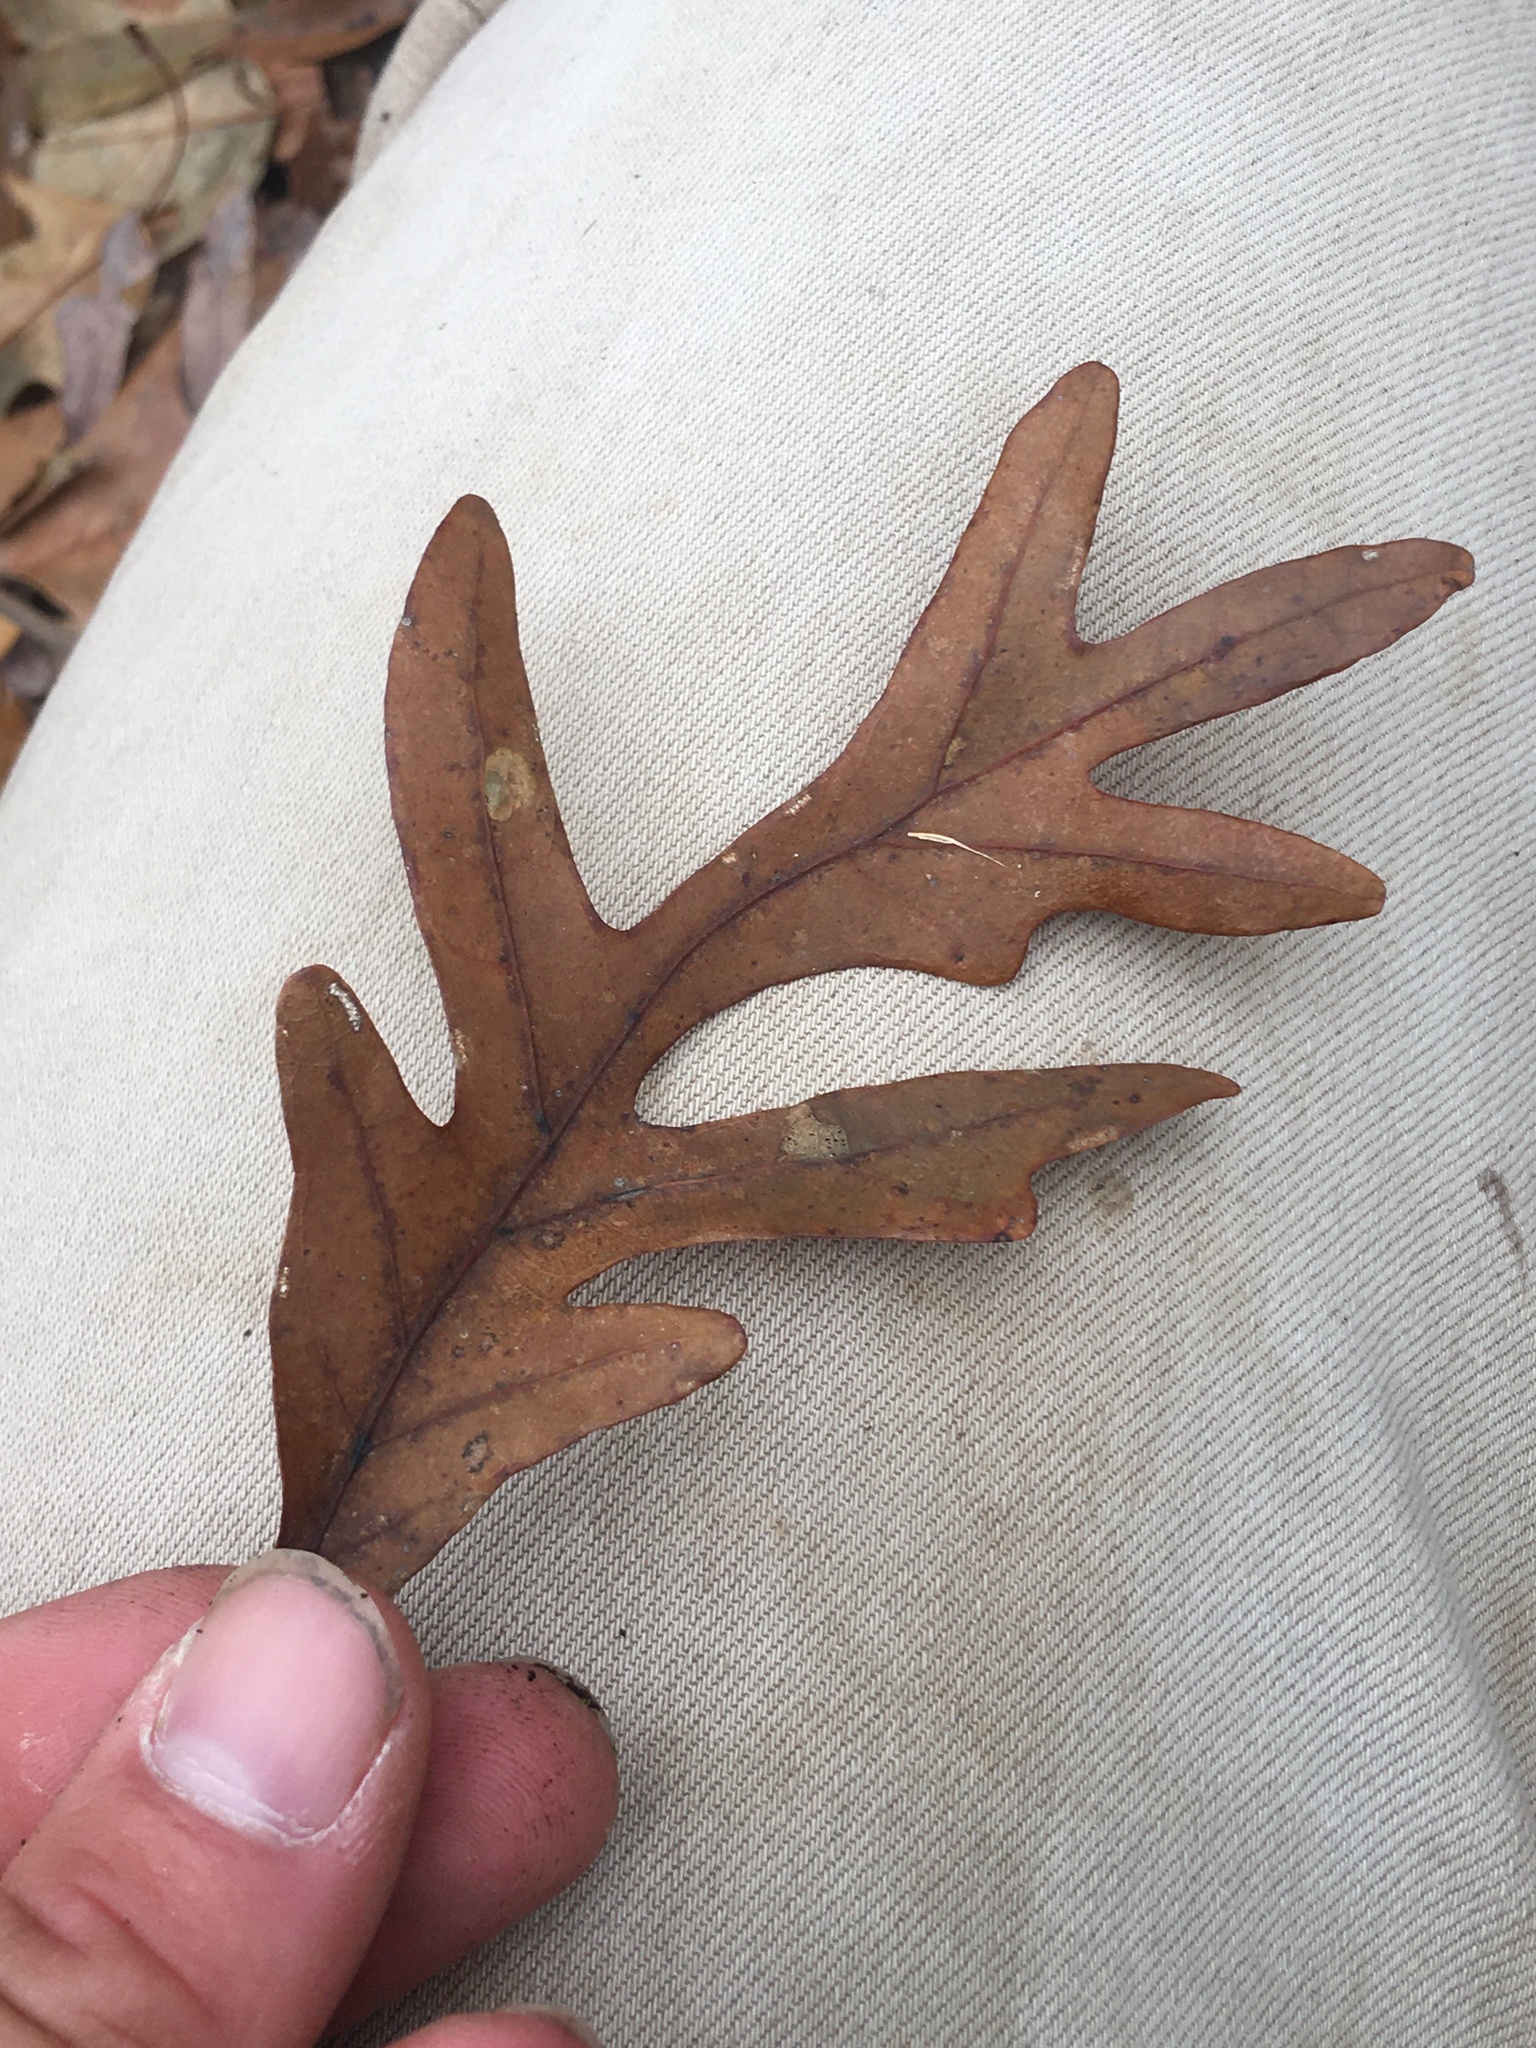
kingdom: Plantae
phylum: Tracheophyta
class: Magnoliopsida
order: Fagales
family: Fagaceae
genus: Quercus
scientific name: Quercus alba
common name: White oak
